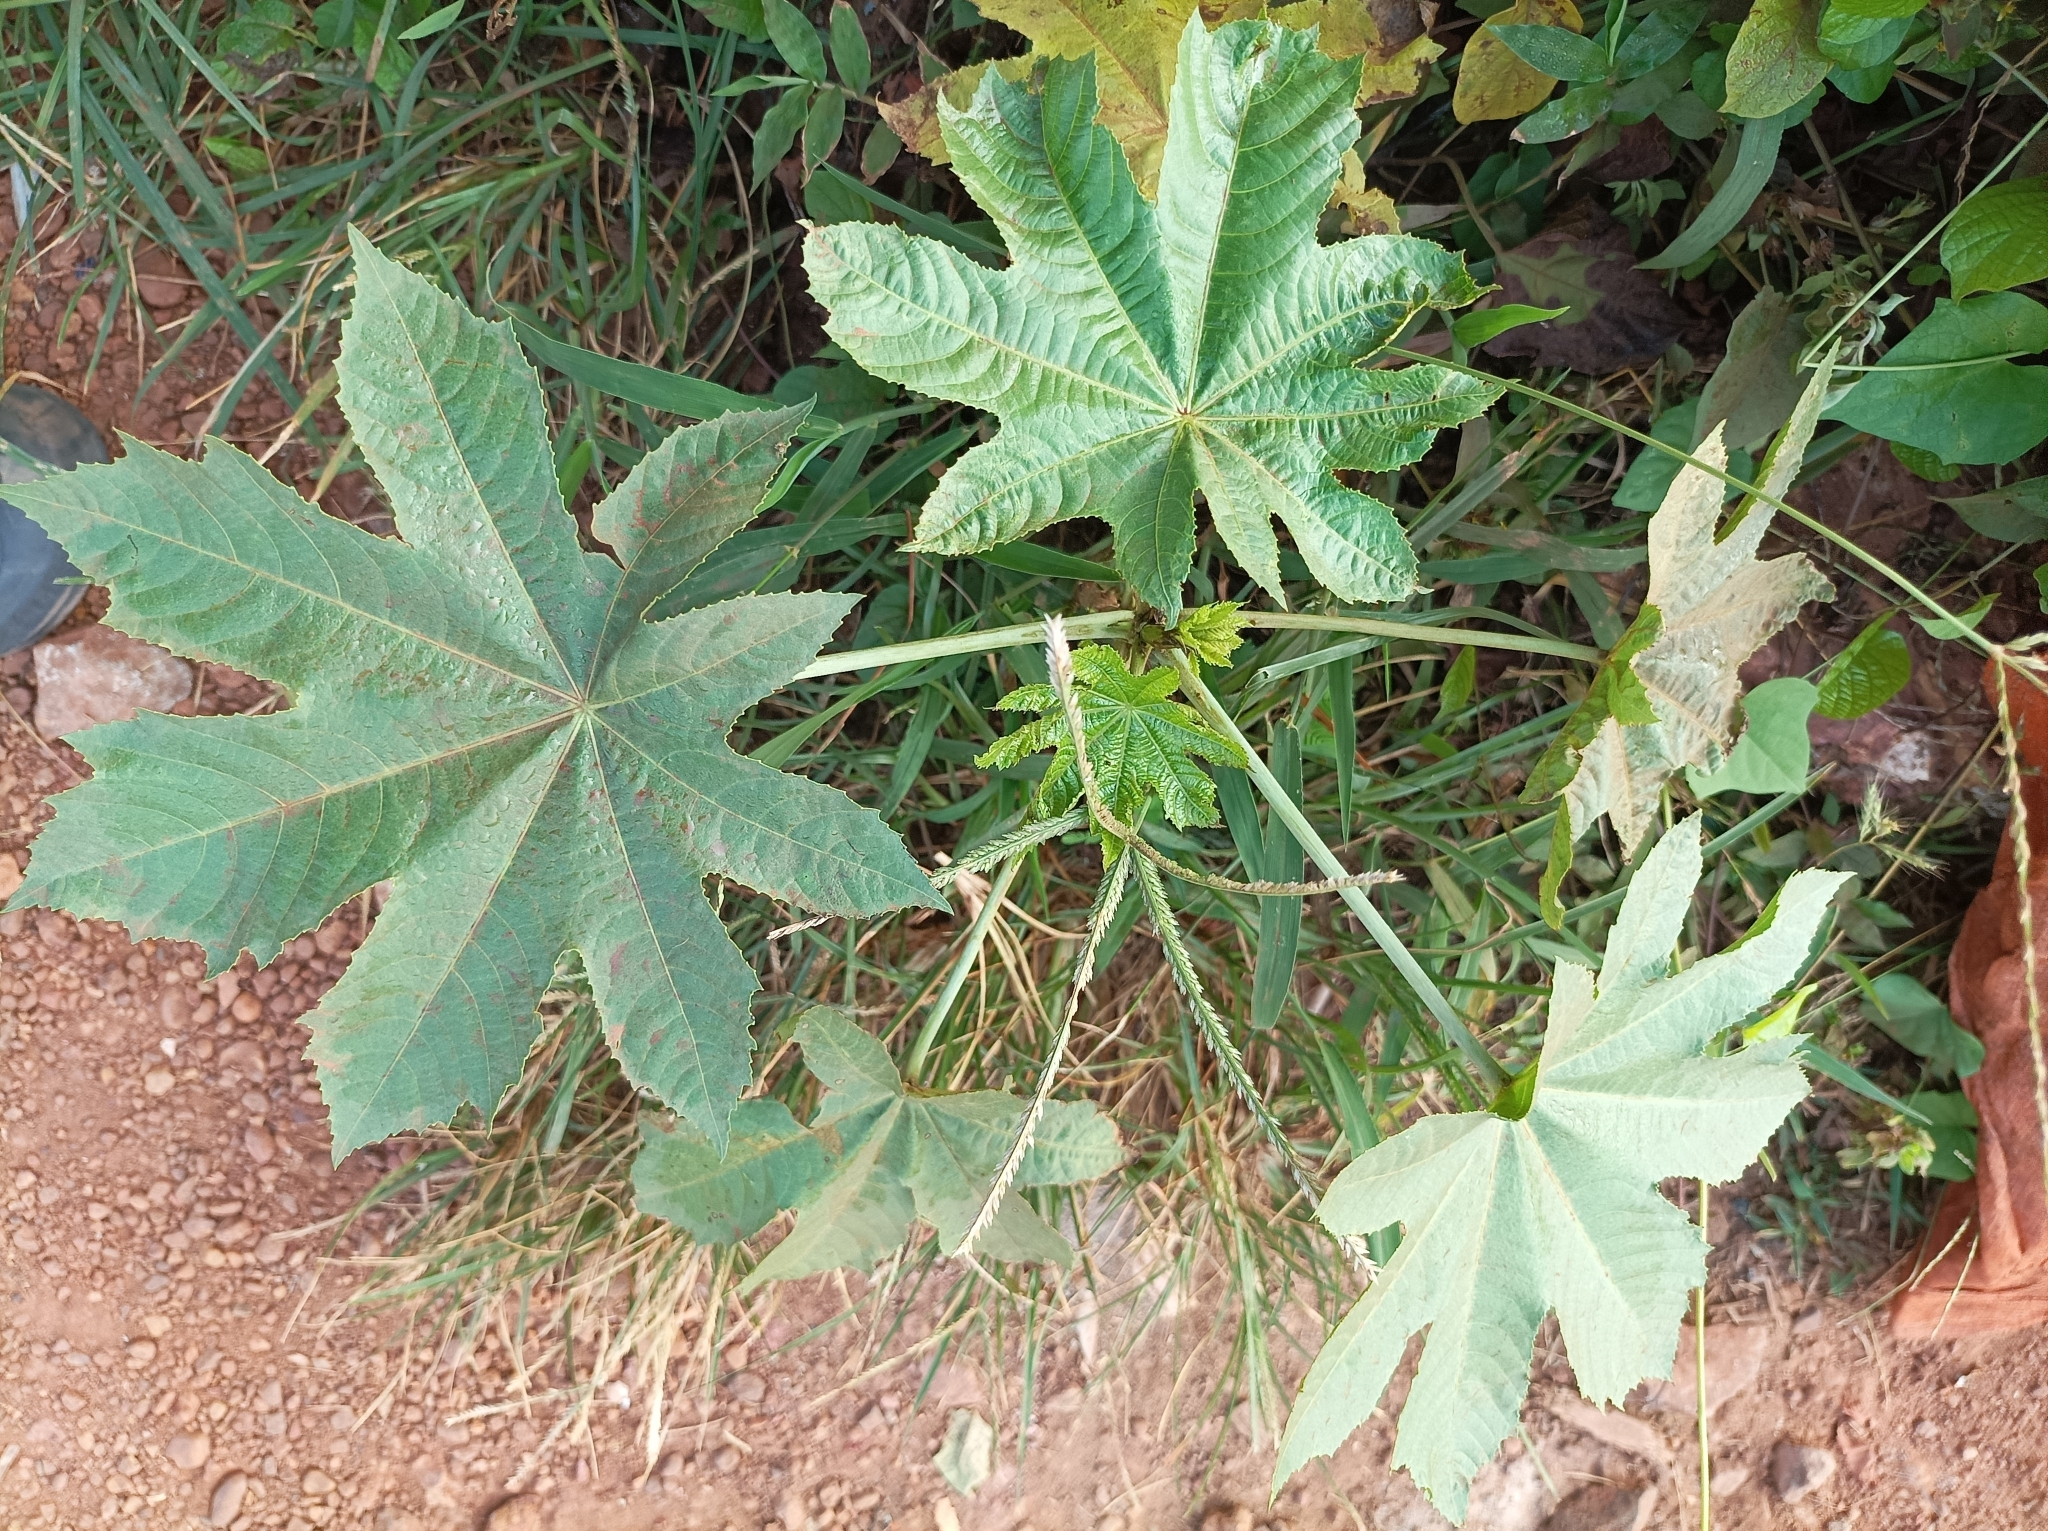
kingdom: Plantae
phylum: Tracheophyta
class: Magnoliopsida
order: Malpighiales
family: Euphorbiaceae
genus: Ricinus
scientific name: Ricinus communis
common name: Castor-oil-plant
